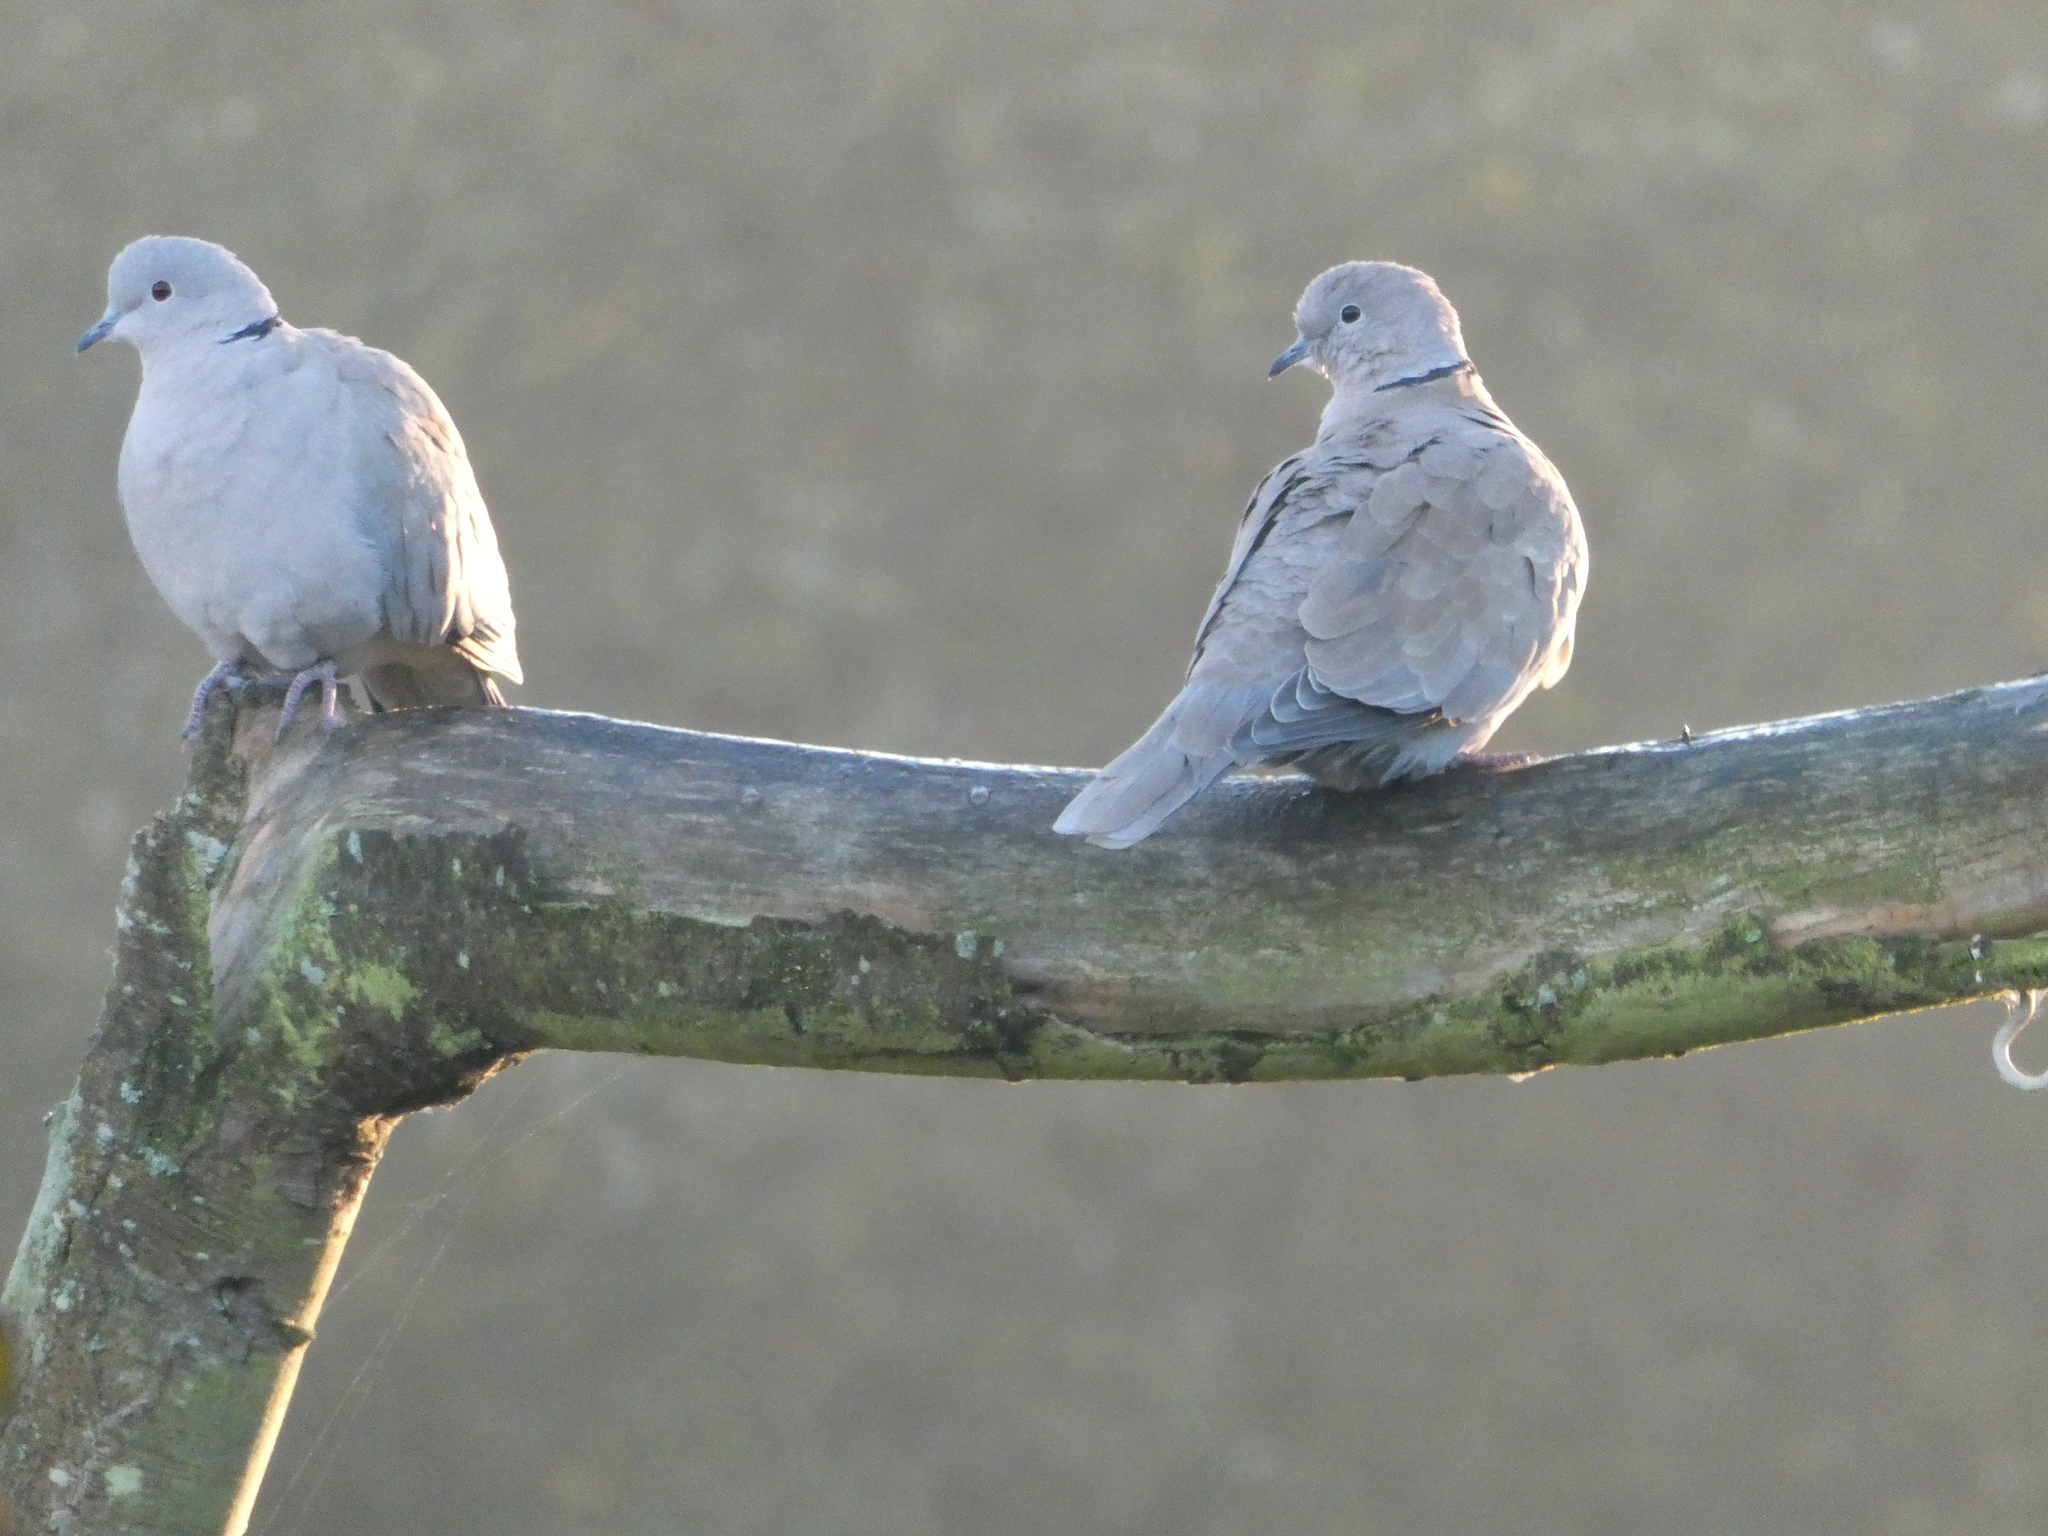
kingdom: Animalia
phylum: Chordata
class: Aves
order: Columbiformes
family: Columbidae
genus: Streptopelia
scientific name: Streptopelia decaocto
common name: Eurasian collared dove
